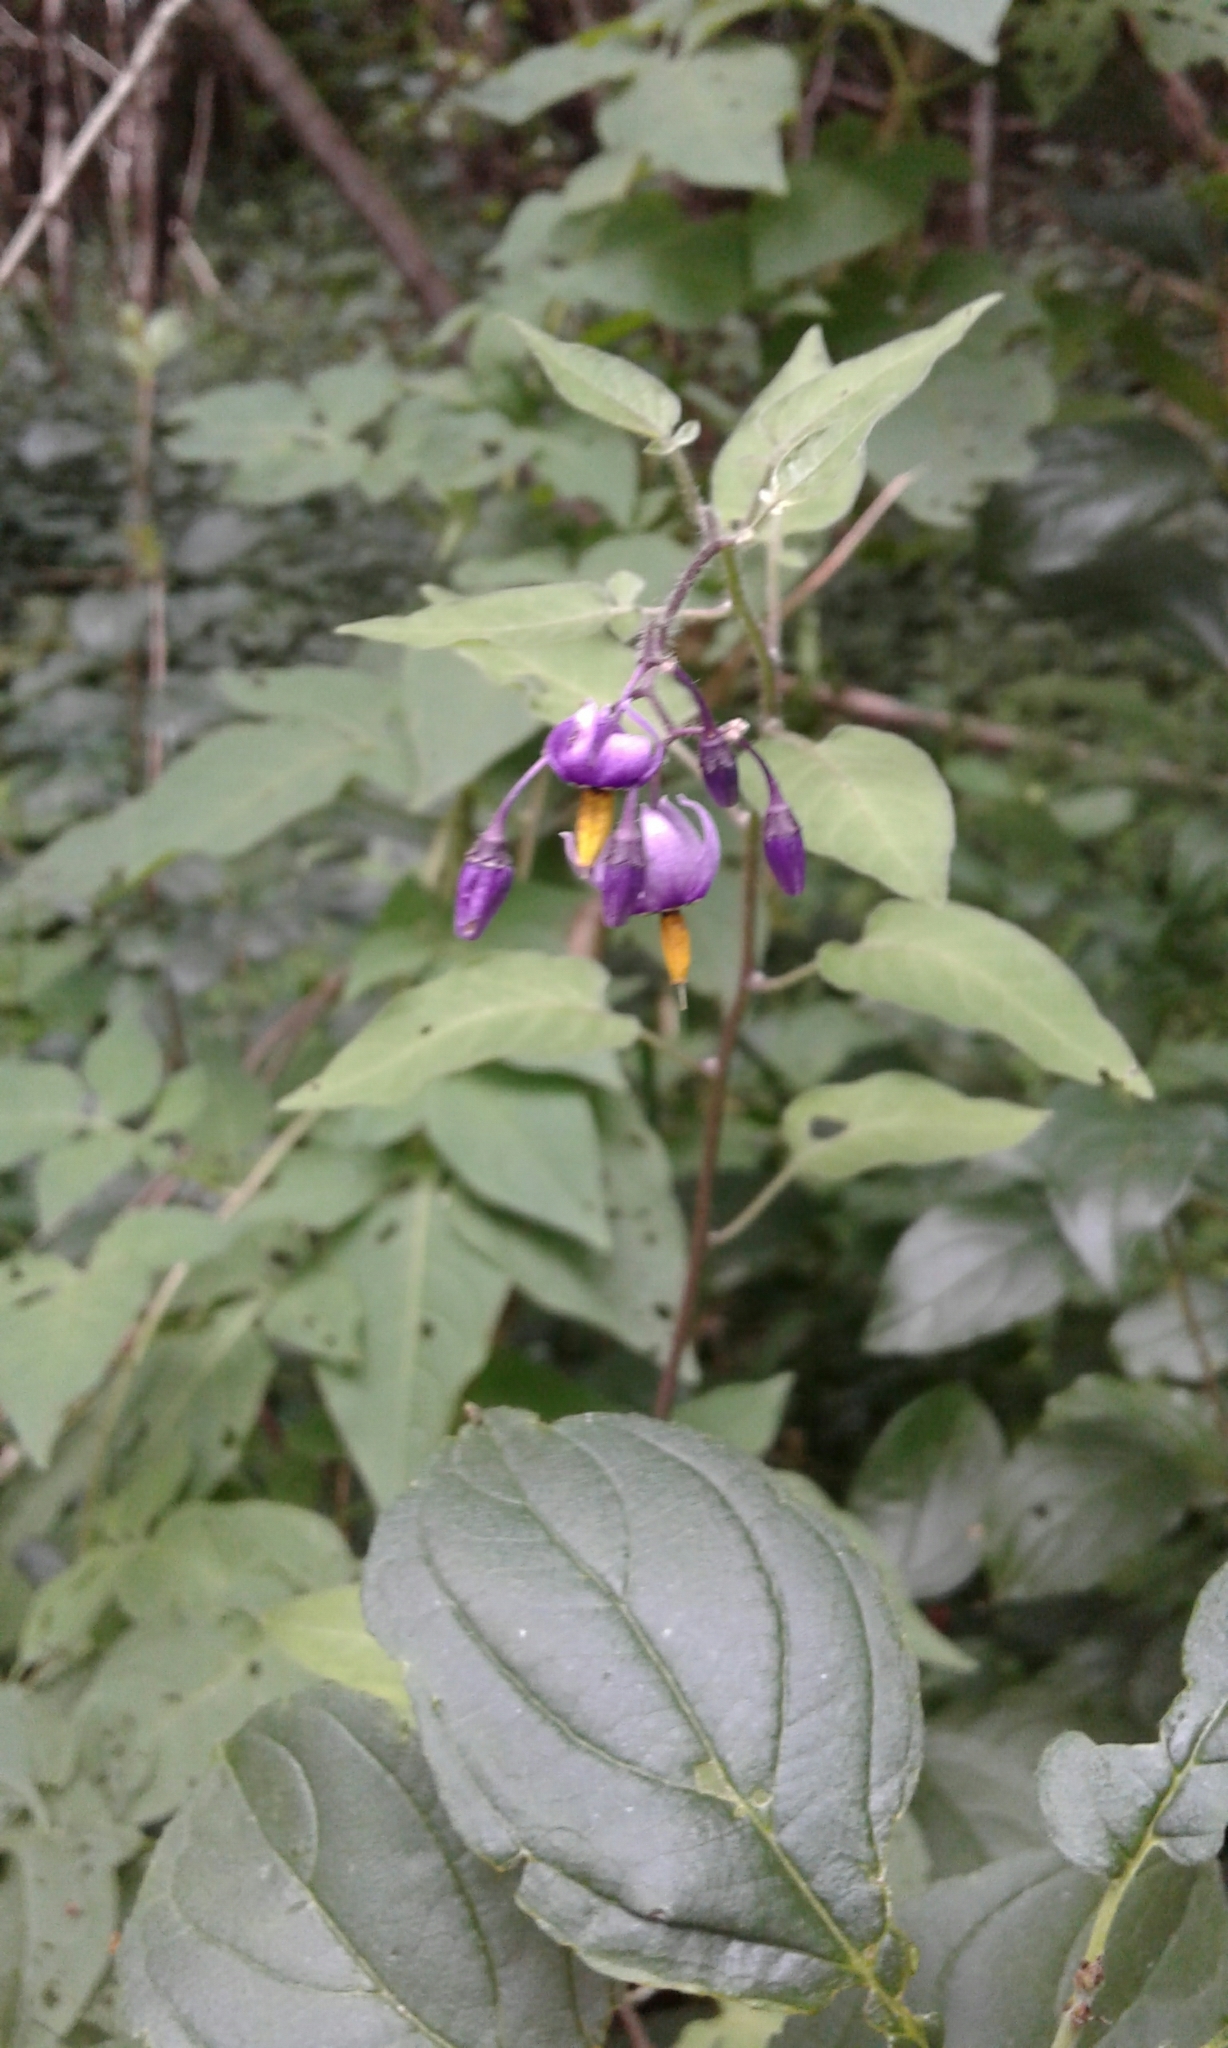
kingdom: Plantae
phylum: Tracheophyta
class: Magnoliopsida
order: Solanales
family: Solanaceae
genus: Solanum
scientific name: Solanum dulcamara
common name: Climbing nightshade
